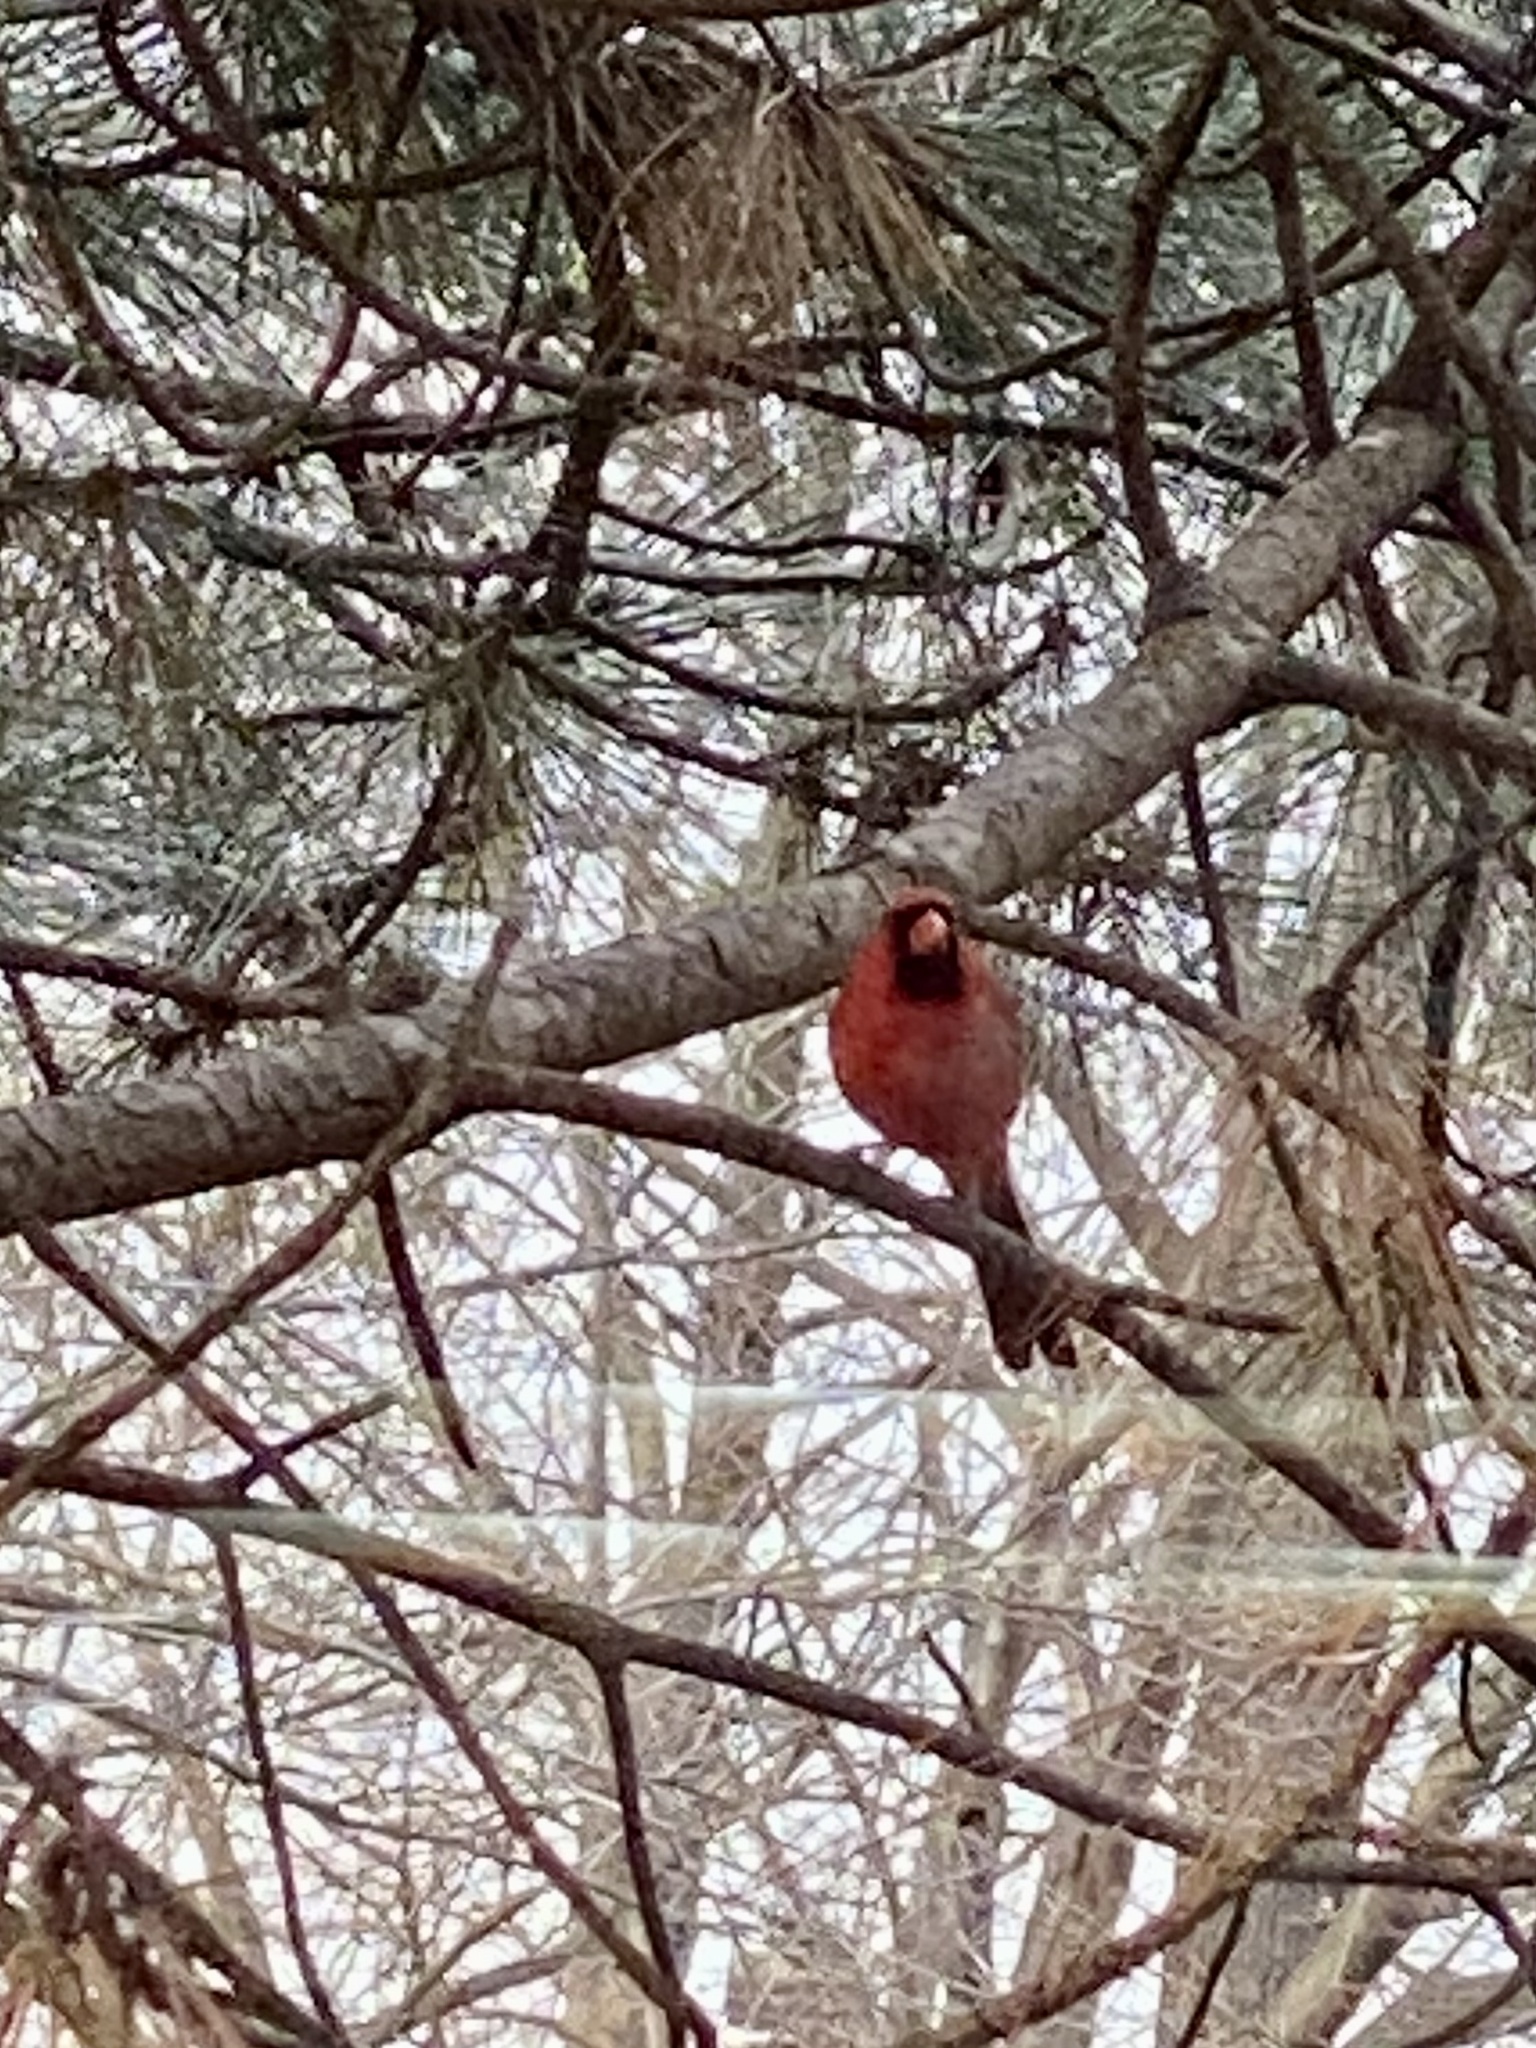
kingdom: Animalia
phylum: Chordata
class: Aves
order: Passeriformes
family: Cardinalidae
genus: Cardinalis
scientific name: Cardinalis cardinalis
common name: Northern cardinal
